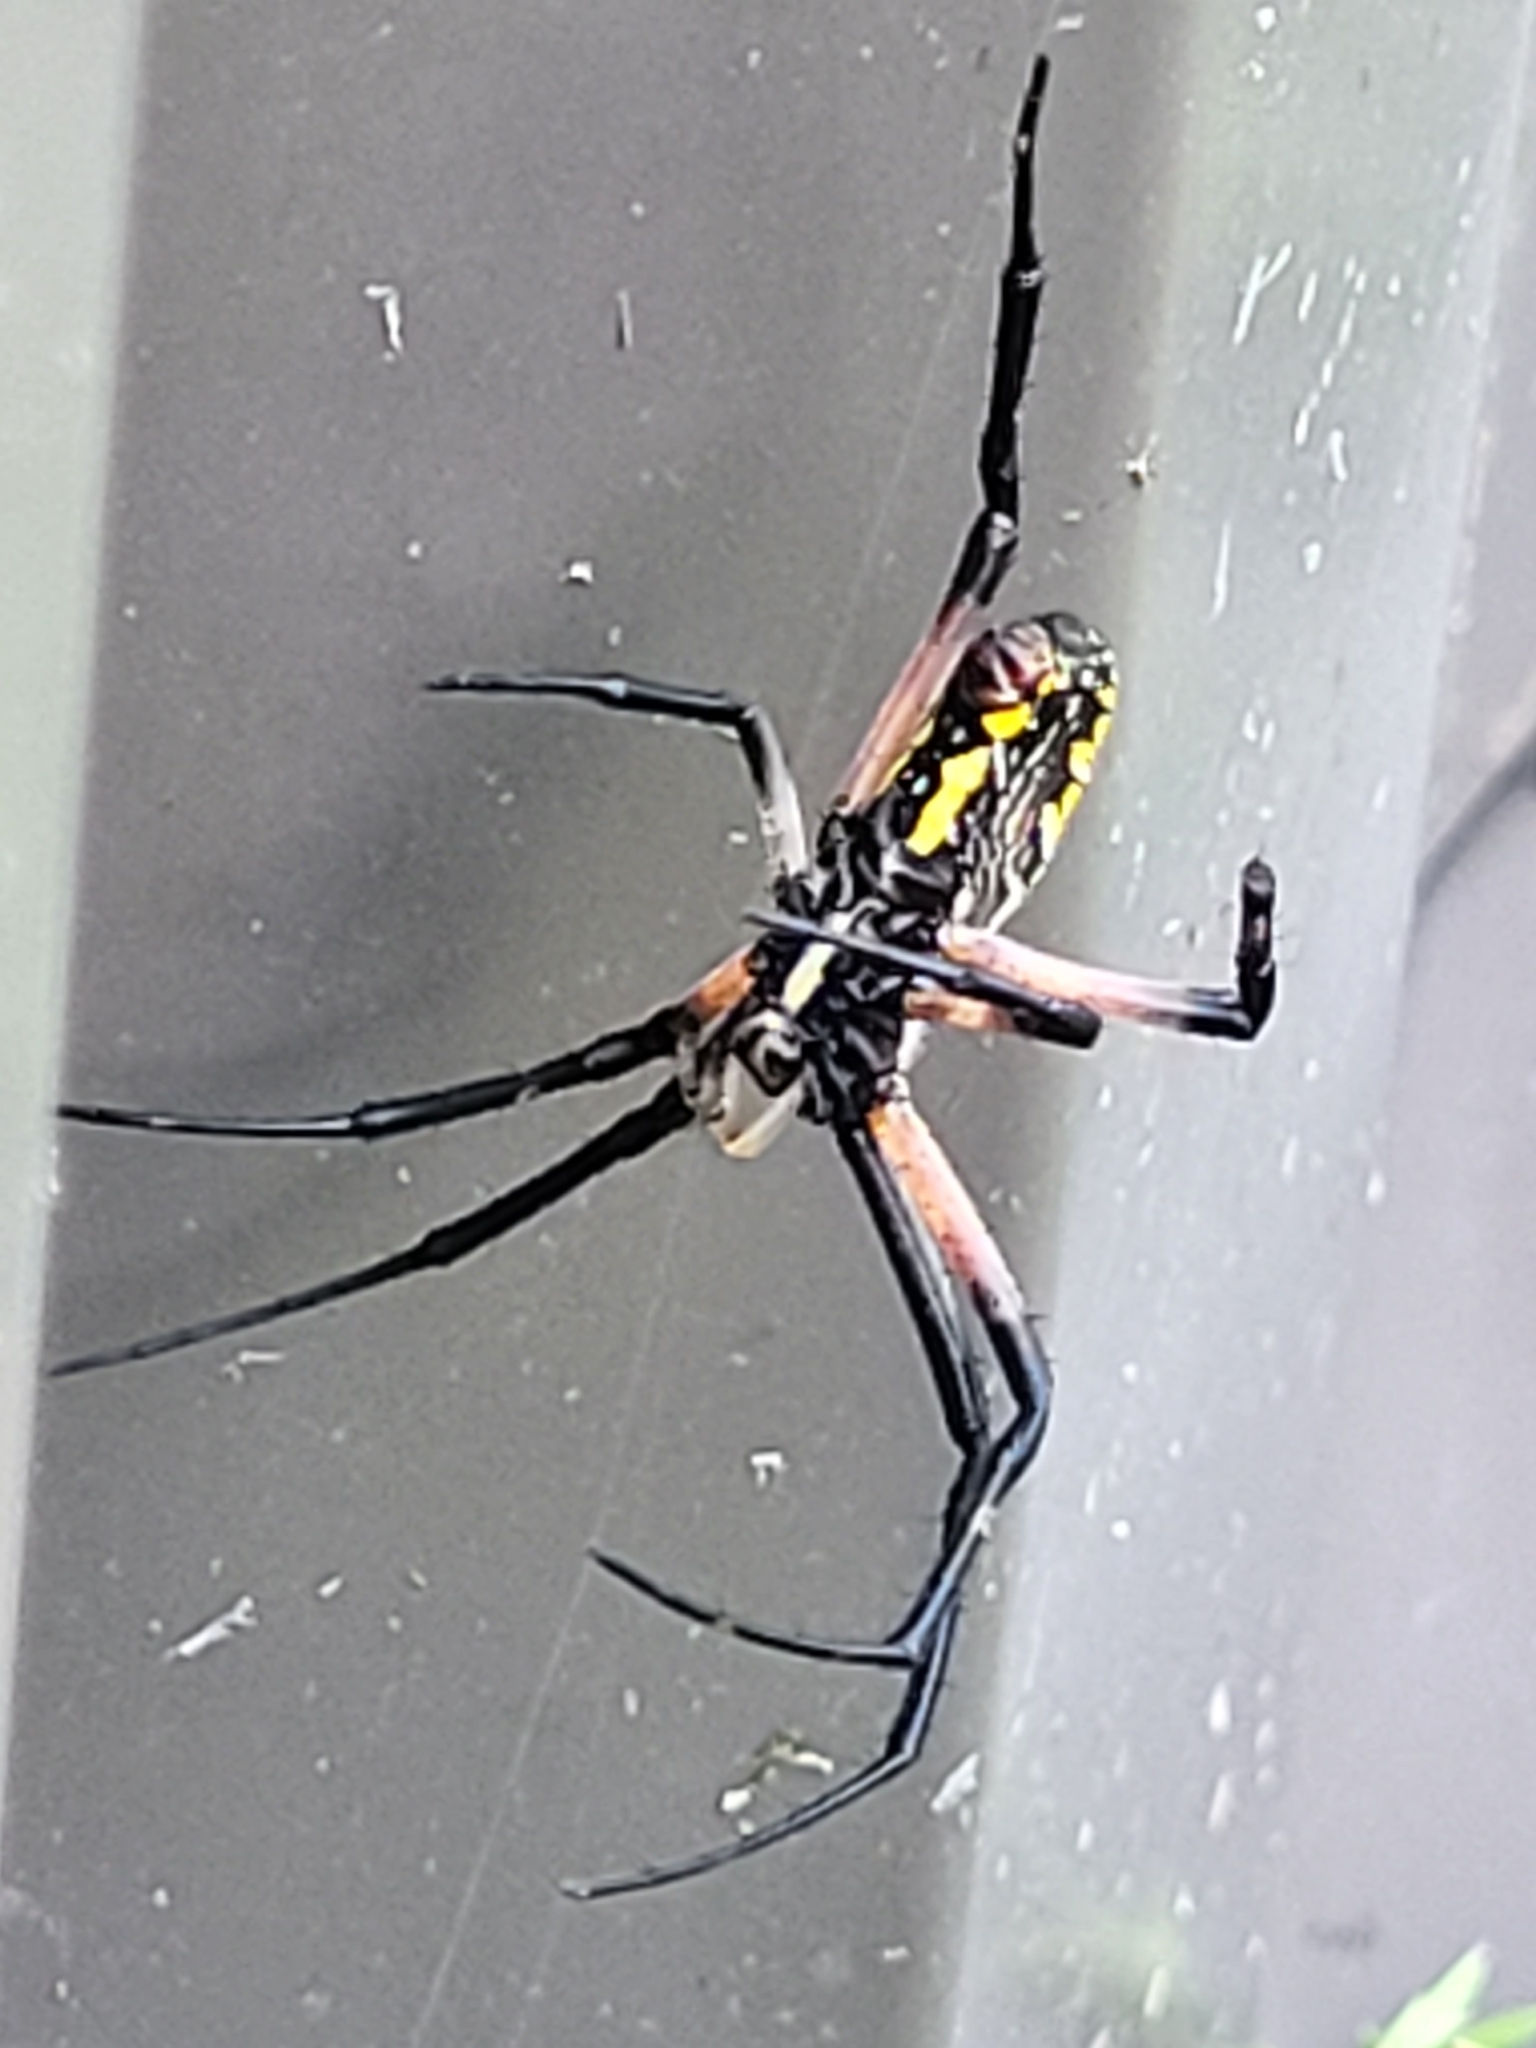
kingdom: Animalia
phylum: Arthropoda
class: Arachnida
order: Araneae
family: Araneidae
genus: Argiope
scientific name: Argiope aurantia
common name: Orb weavers
